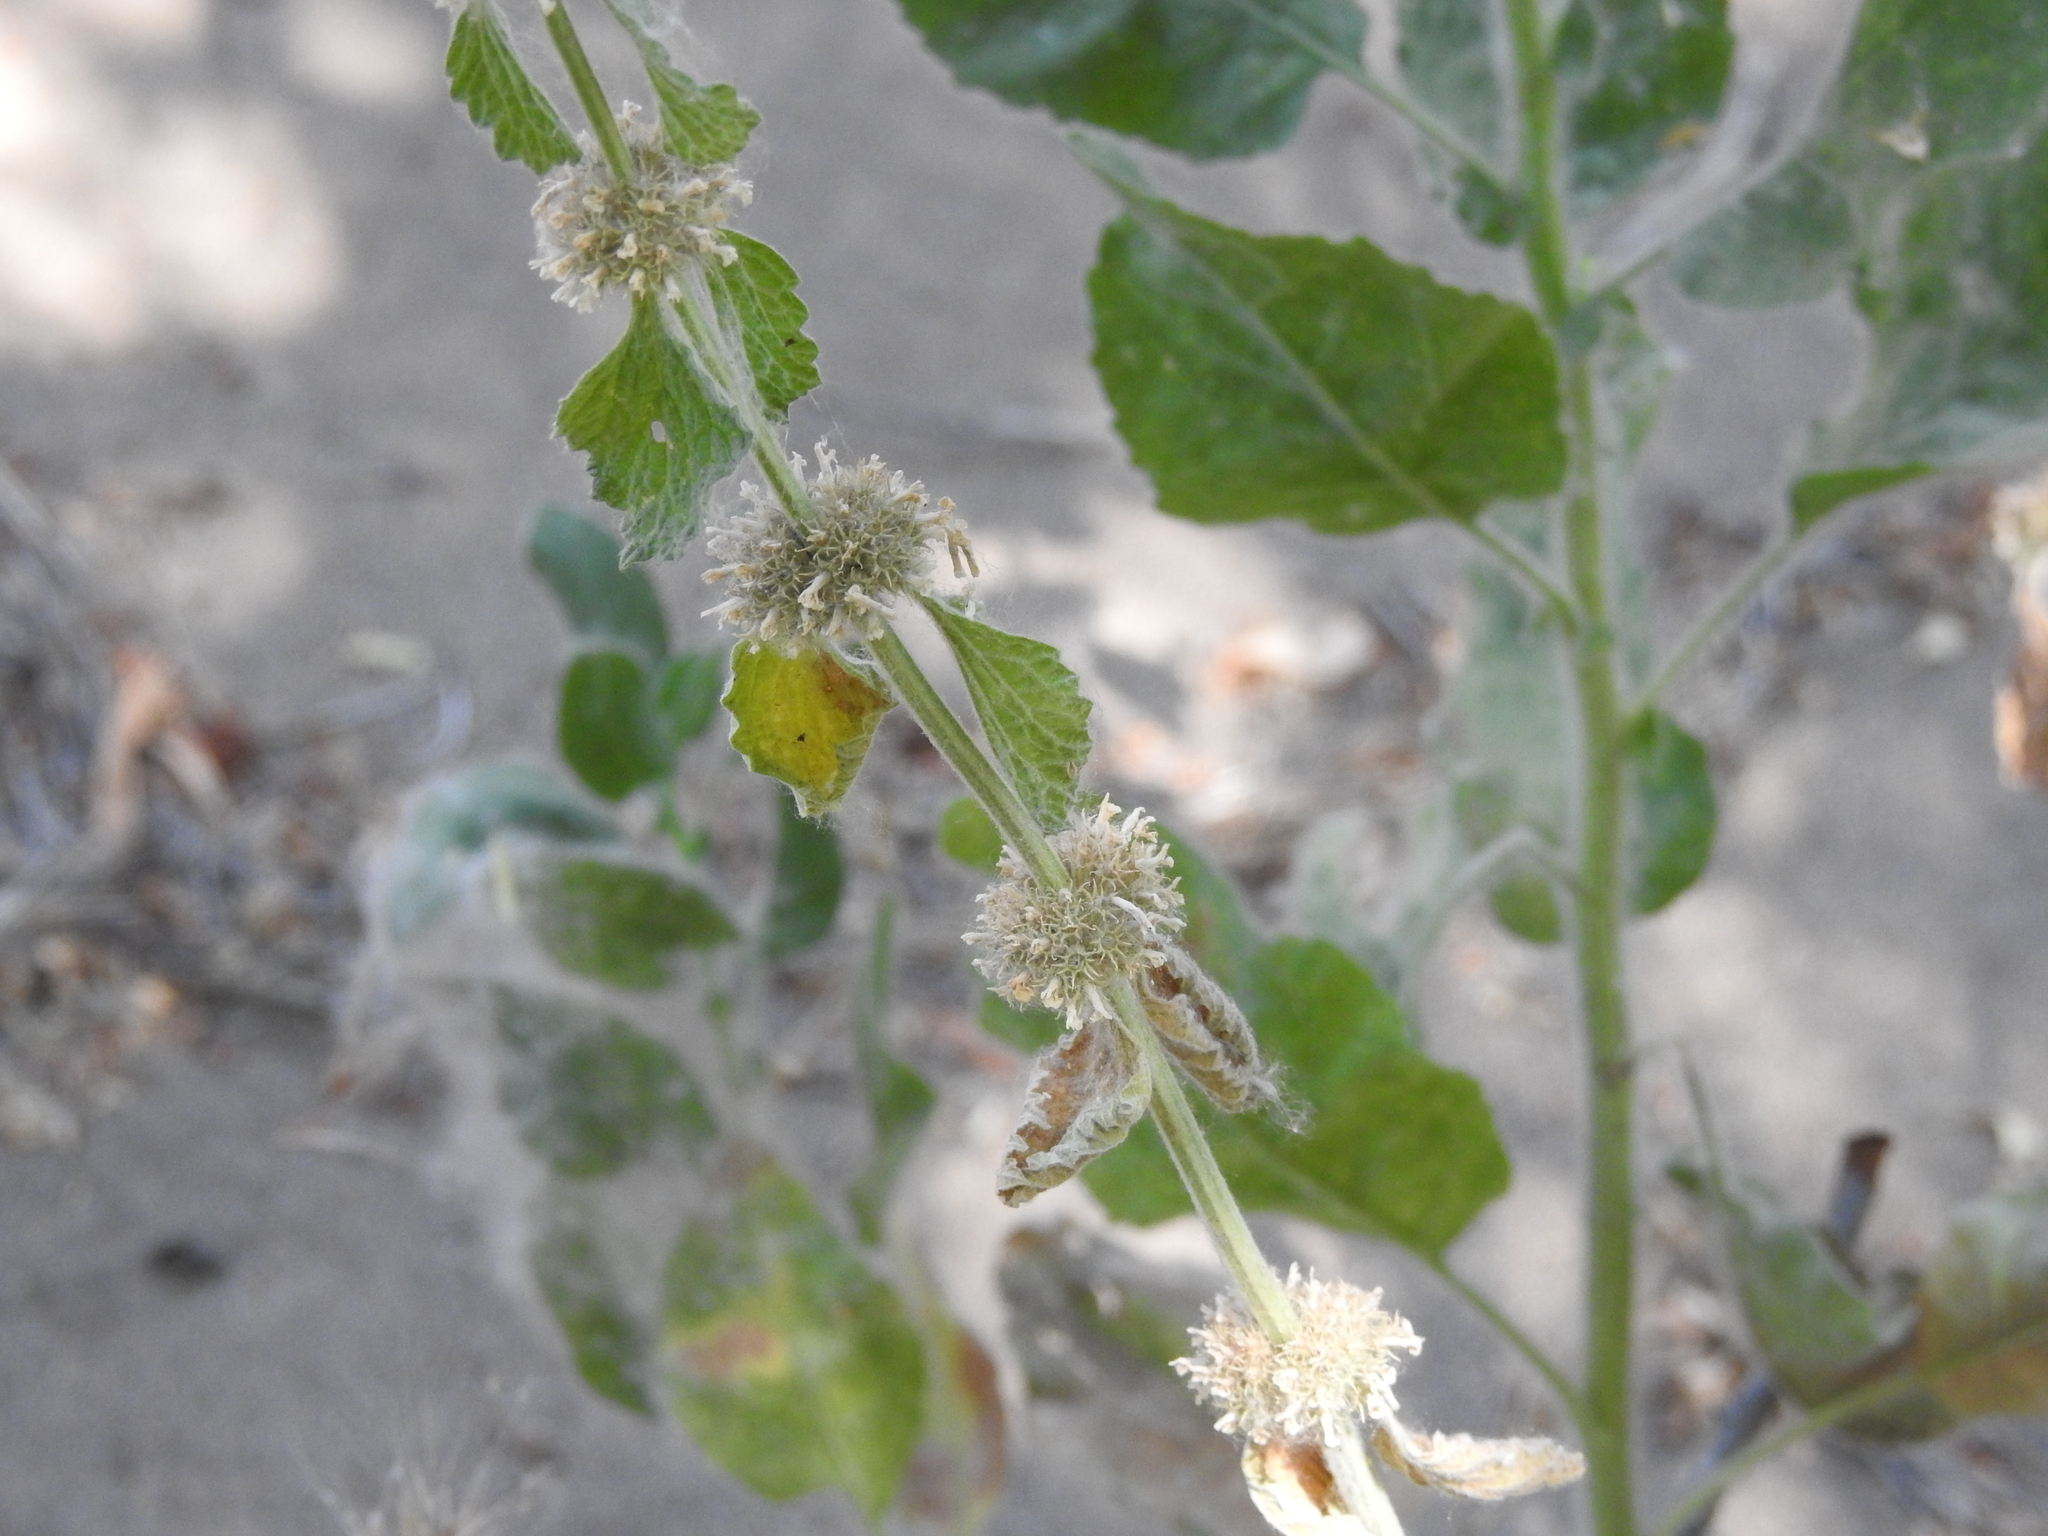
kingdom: Plantae
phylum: Tracheophyta
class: Magnoliopsida
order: Lamiales
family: Lamiaceae
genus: Marrubium
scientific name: Marrubium vulgare
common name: Horehound
